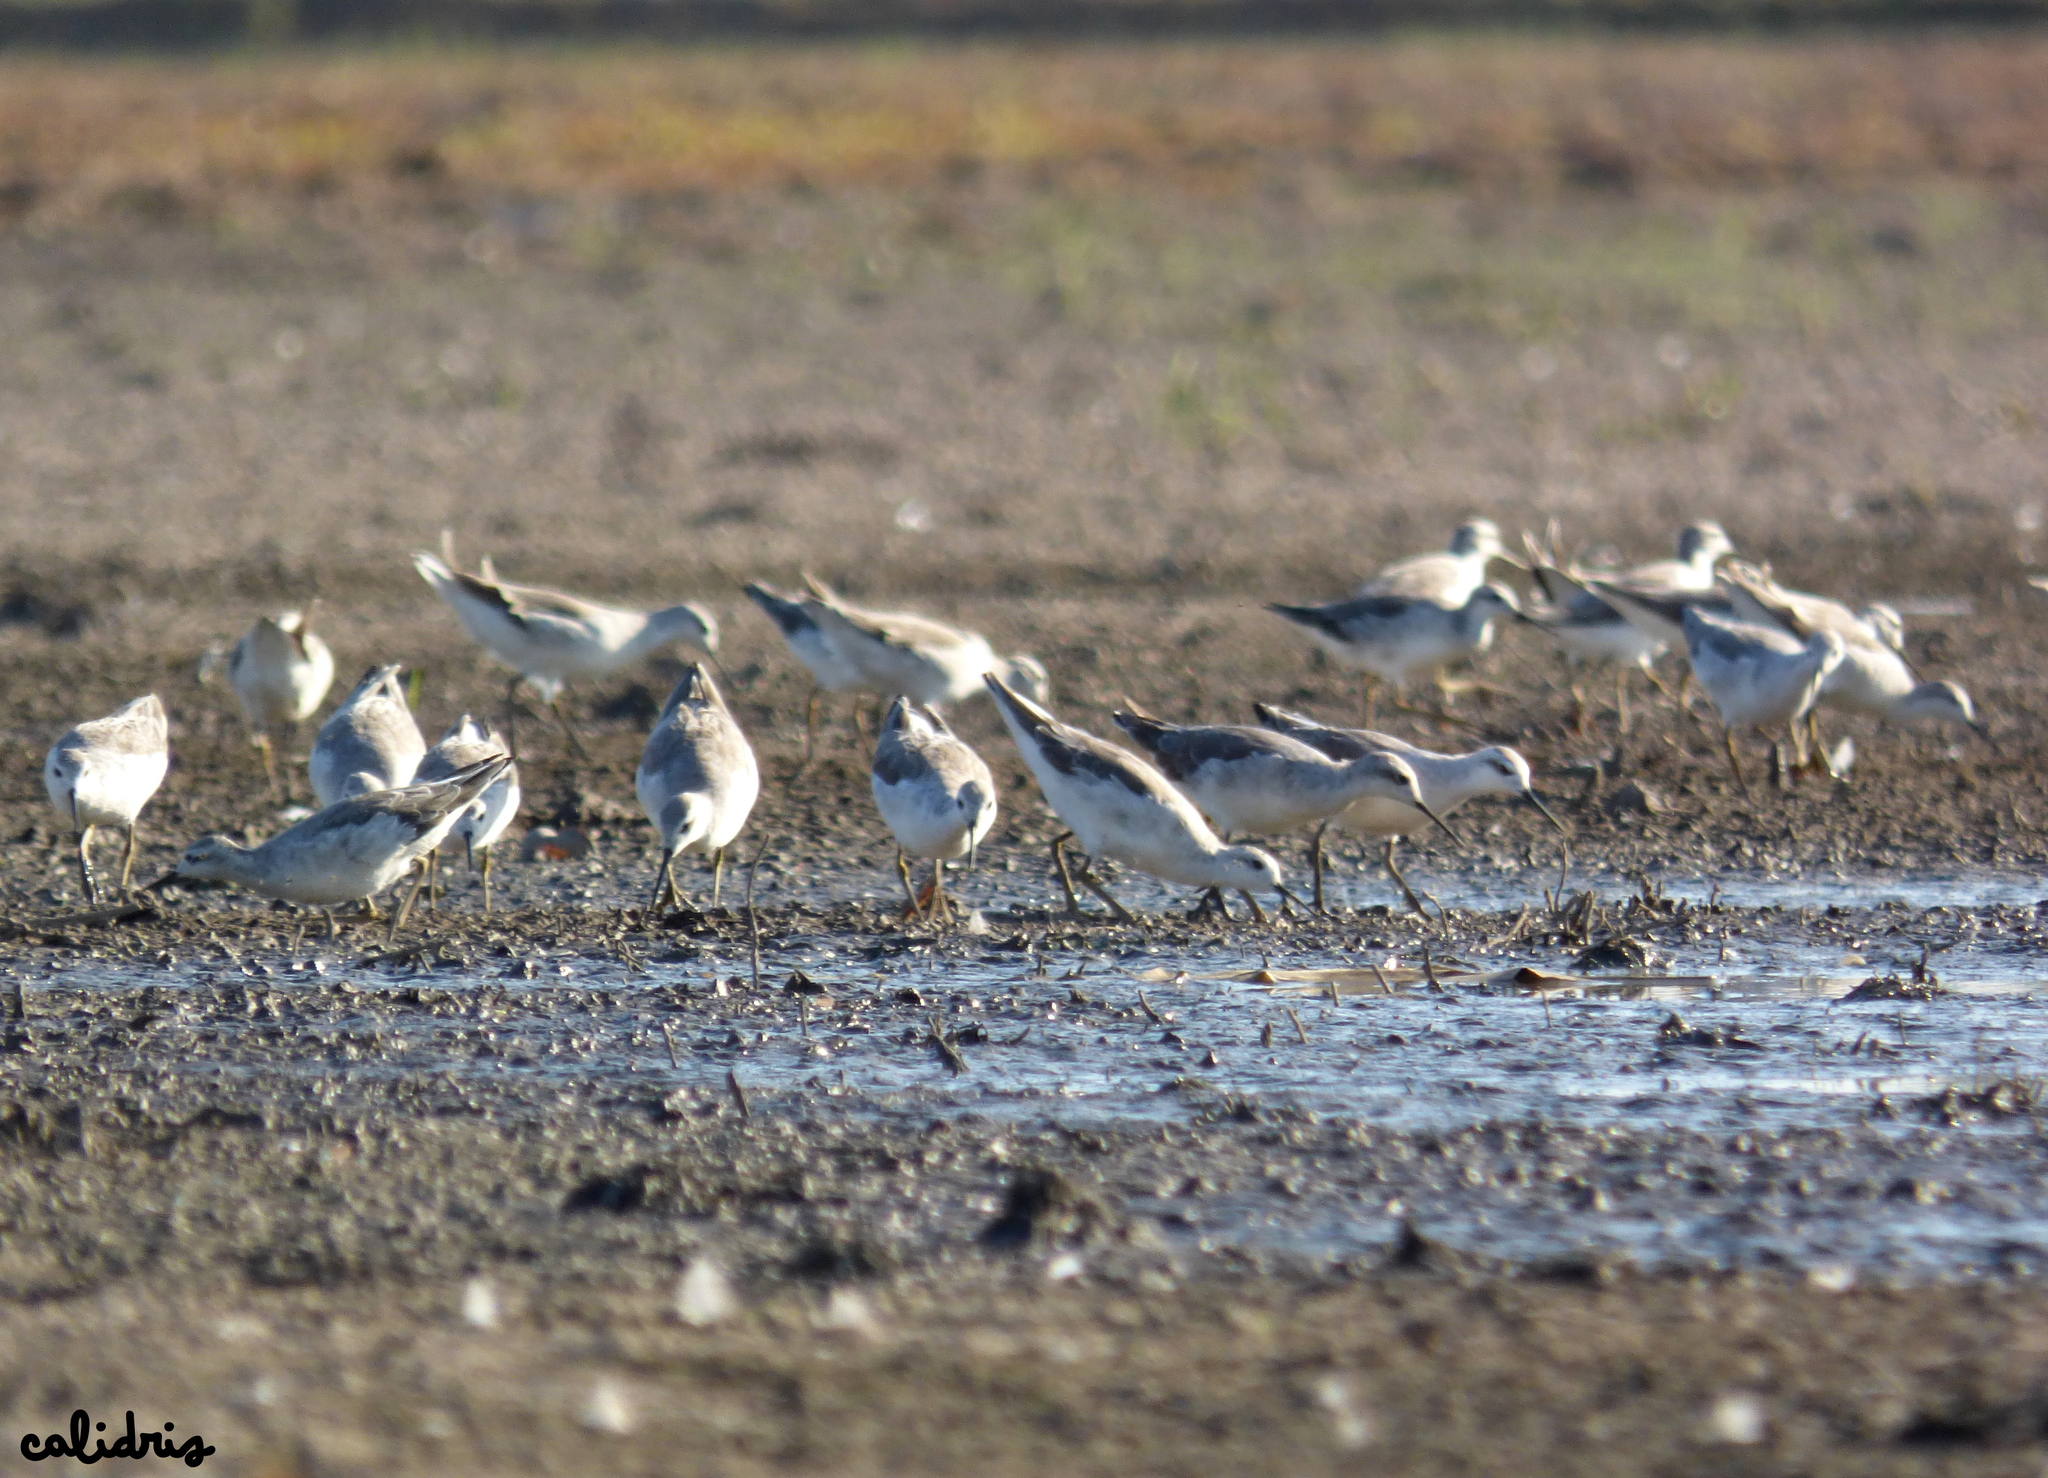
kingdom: Animalia
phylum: Chordata
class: Aves
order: Charadriiformes
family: Scolopacidae
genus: Phalaropus
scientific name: Phalaropus tricolor
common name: Wilson's phalarope
